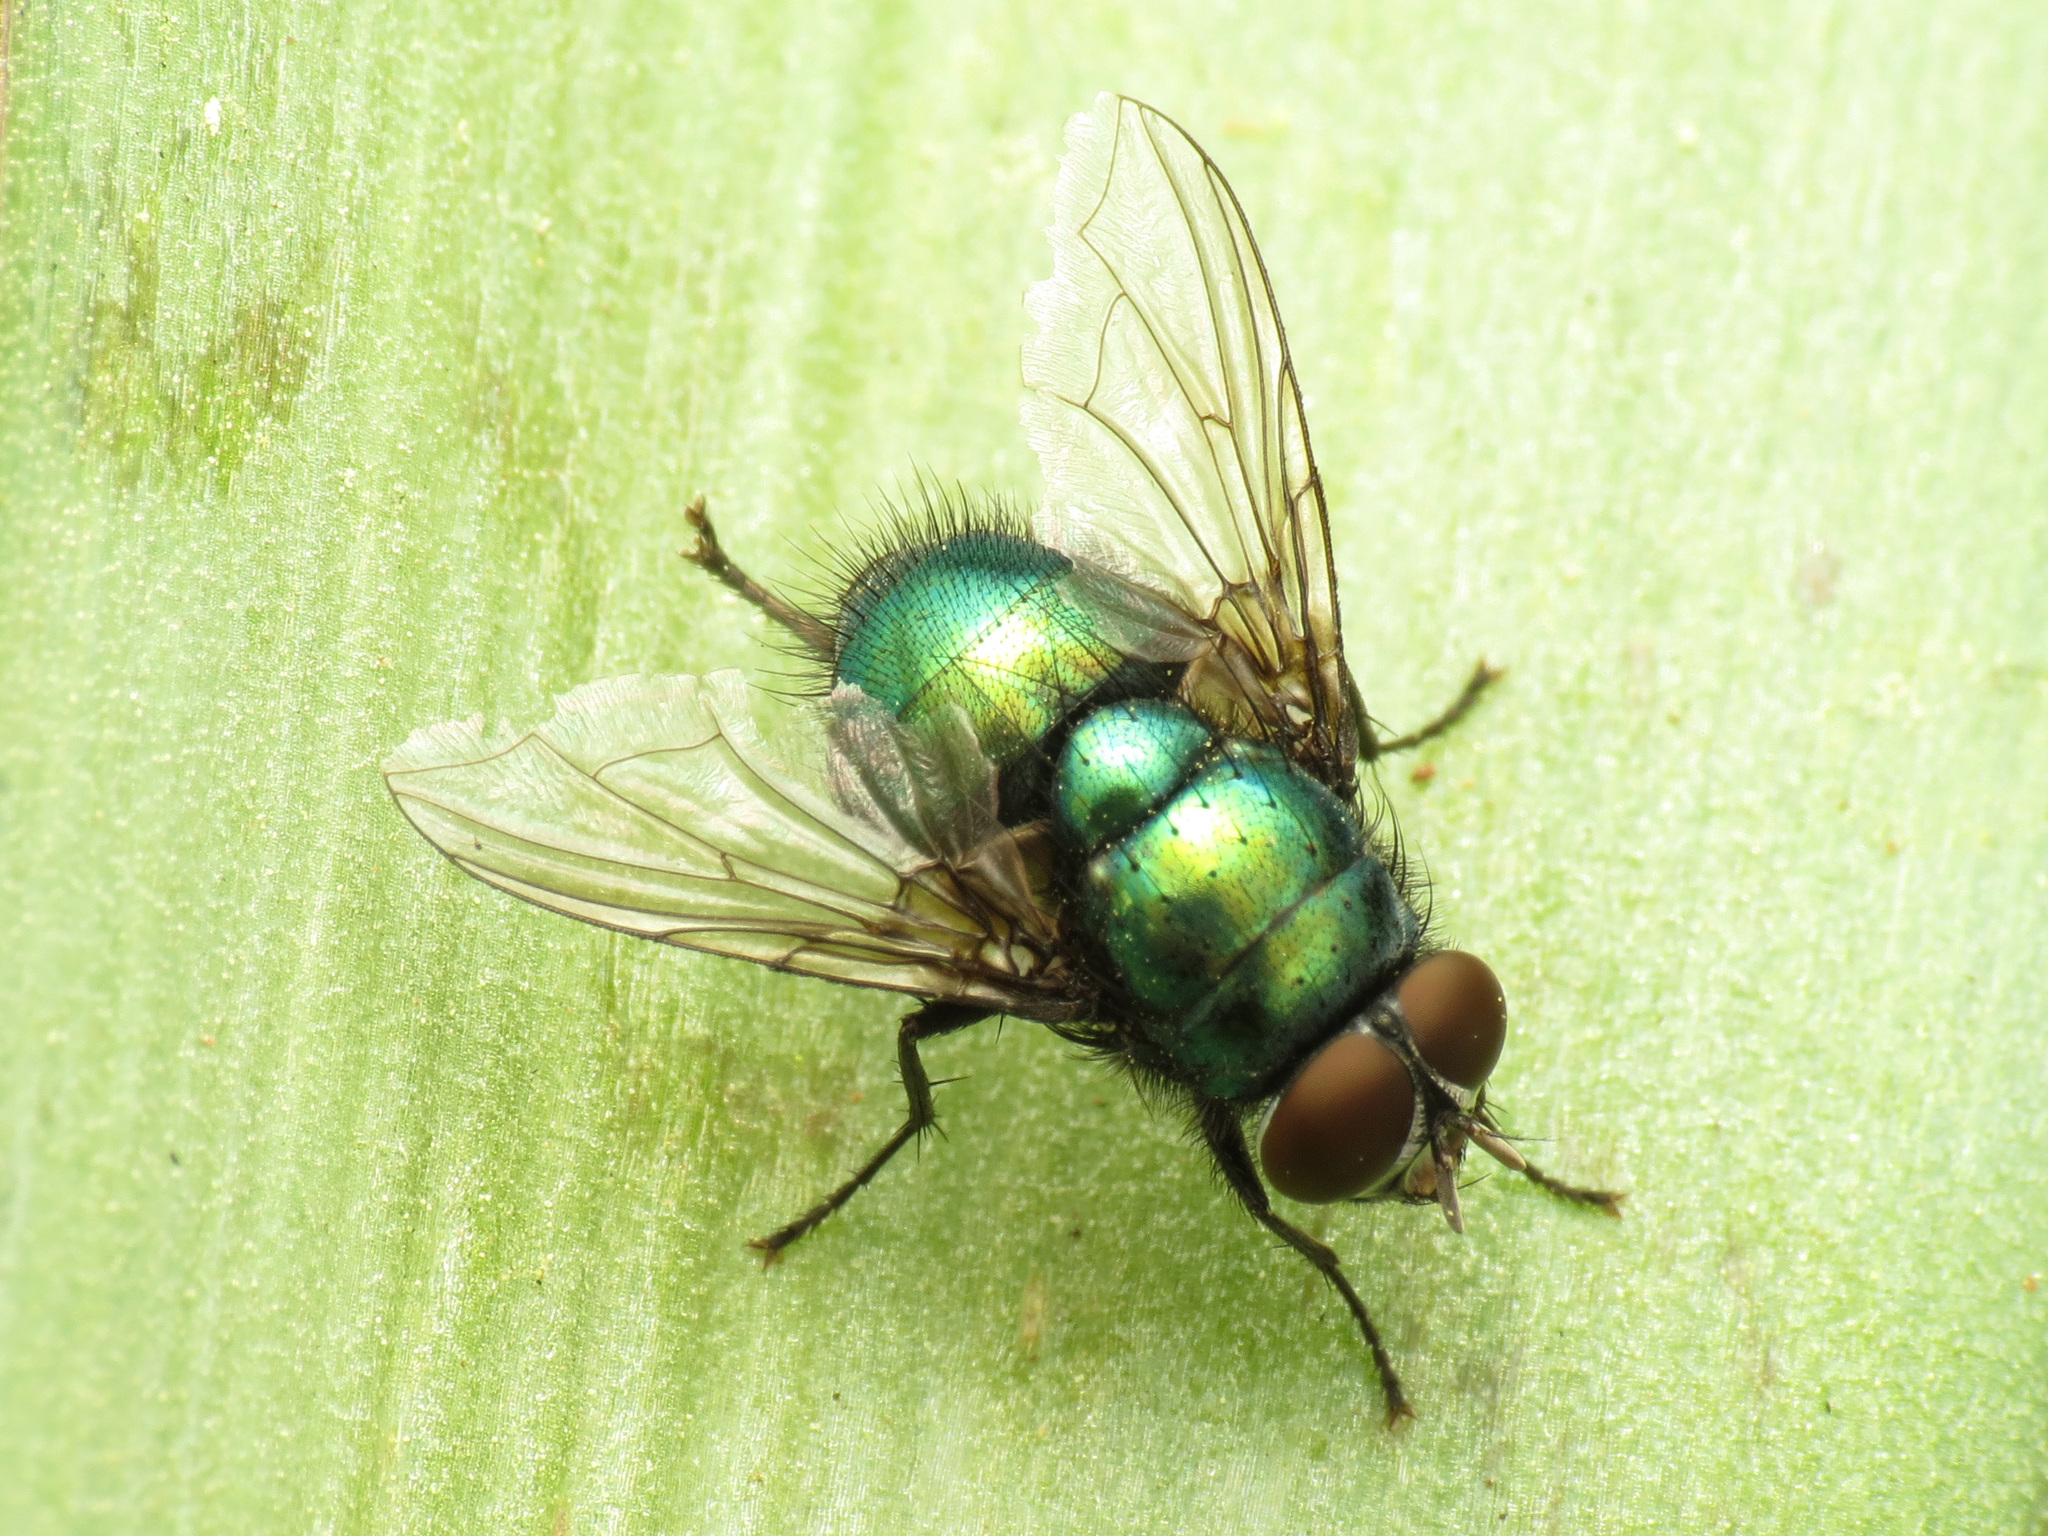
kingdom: Animalia
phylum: Arthropoda
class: Insecta
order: Diptera
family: Calliphoridae
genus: Lucilia
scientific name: Lucilia illustris
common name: Illustrious greenbottle
